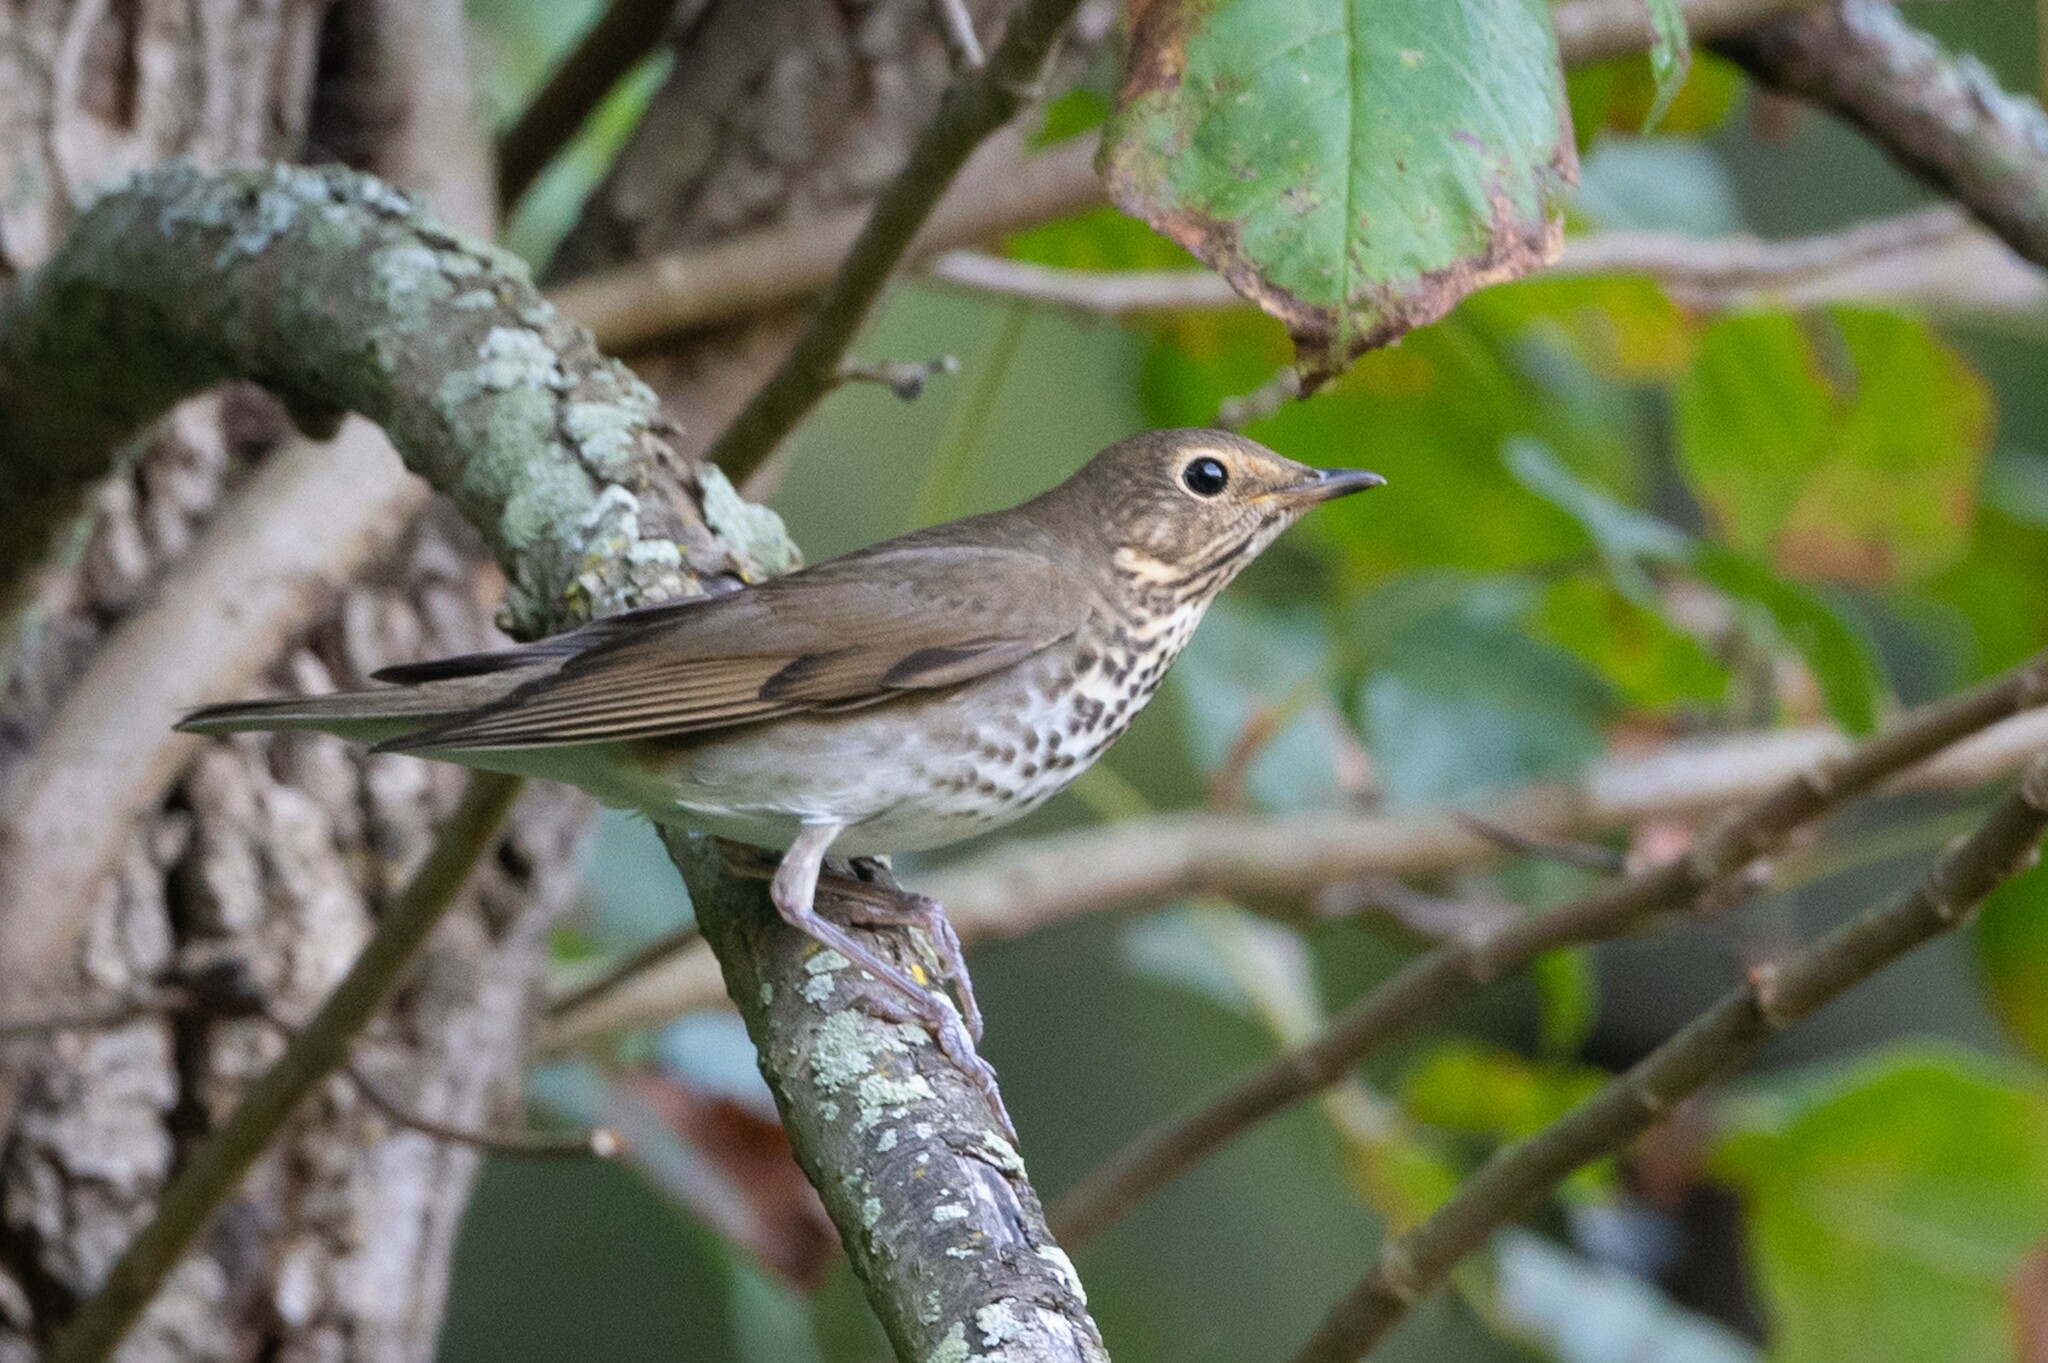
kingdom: Animalia
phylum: Chordata
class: Aves
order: Passeriformes
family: Turdidae
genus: Catharus
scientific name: Catharus ustulatus
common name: Swainson's thrush
